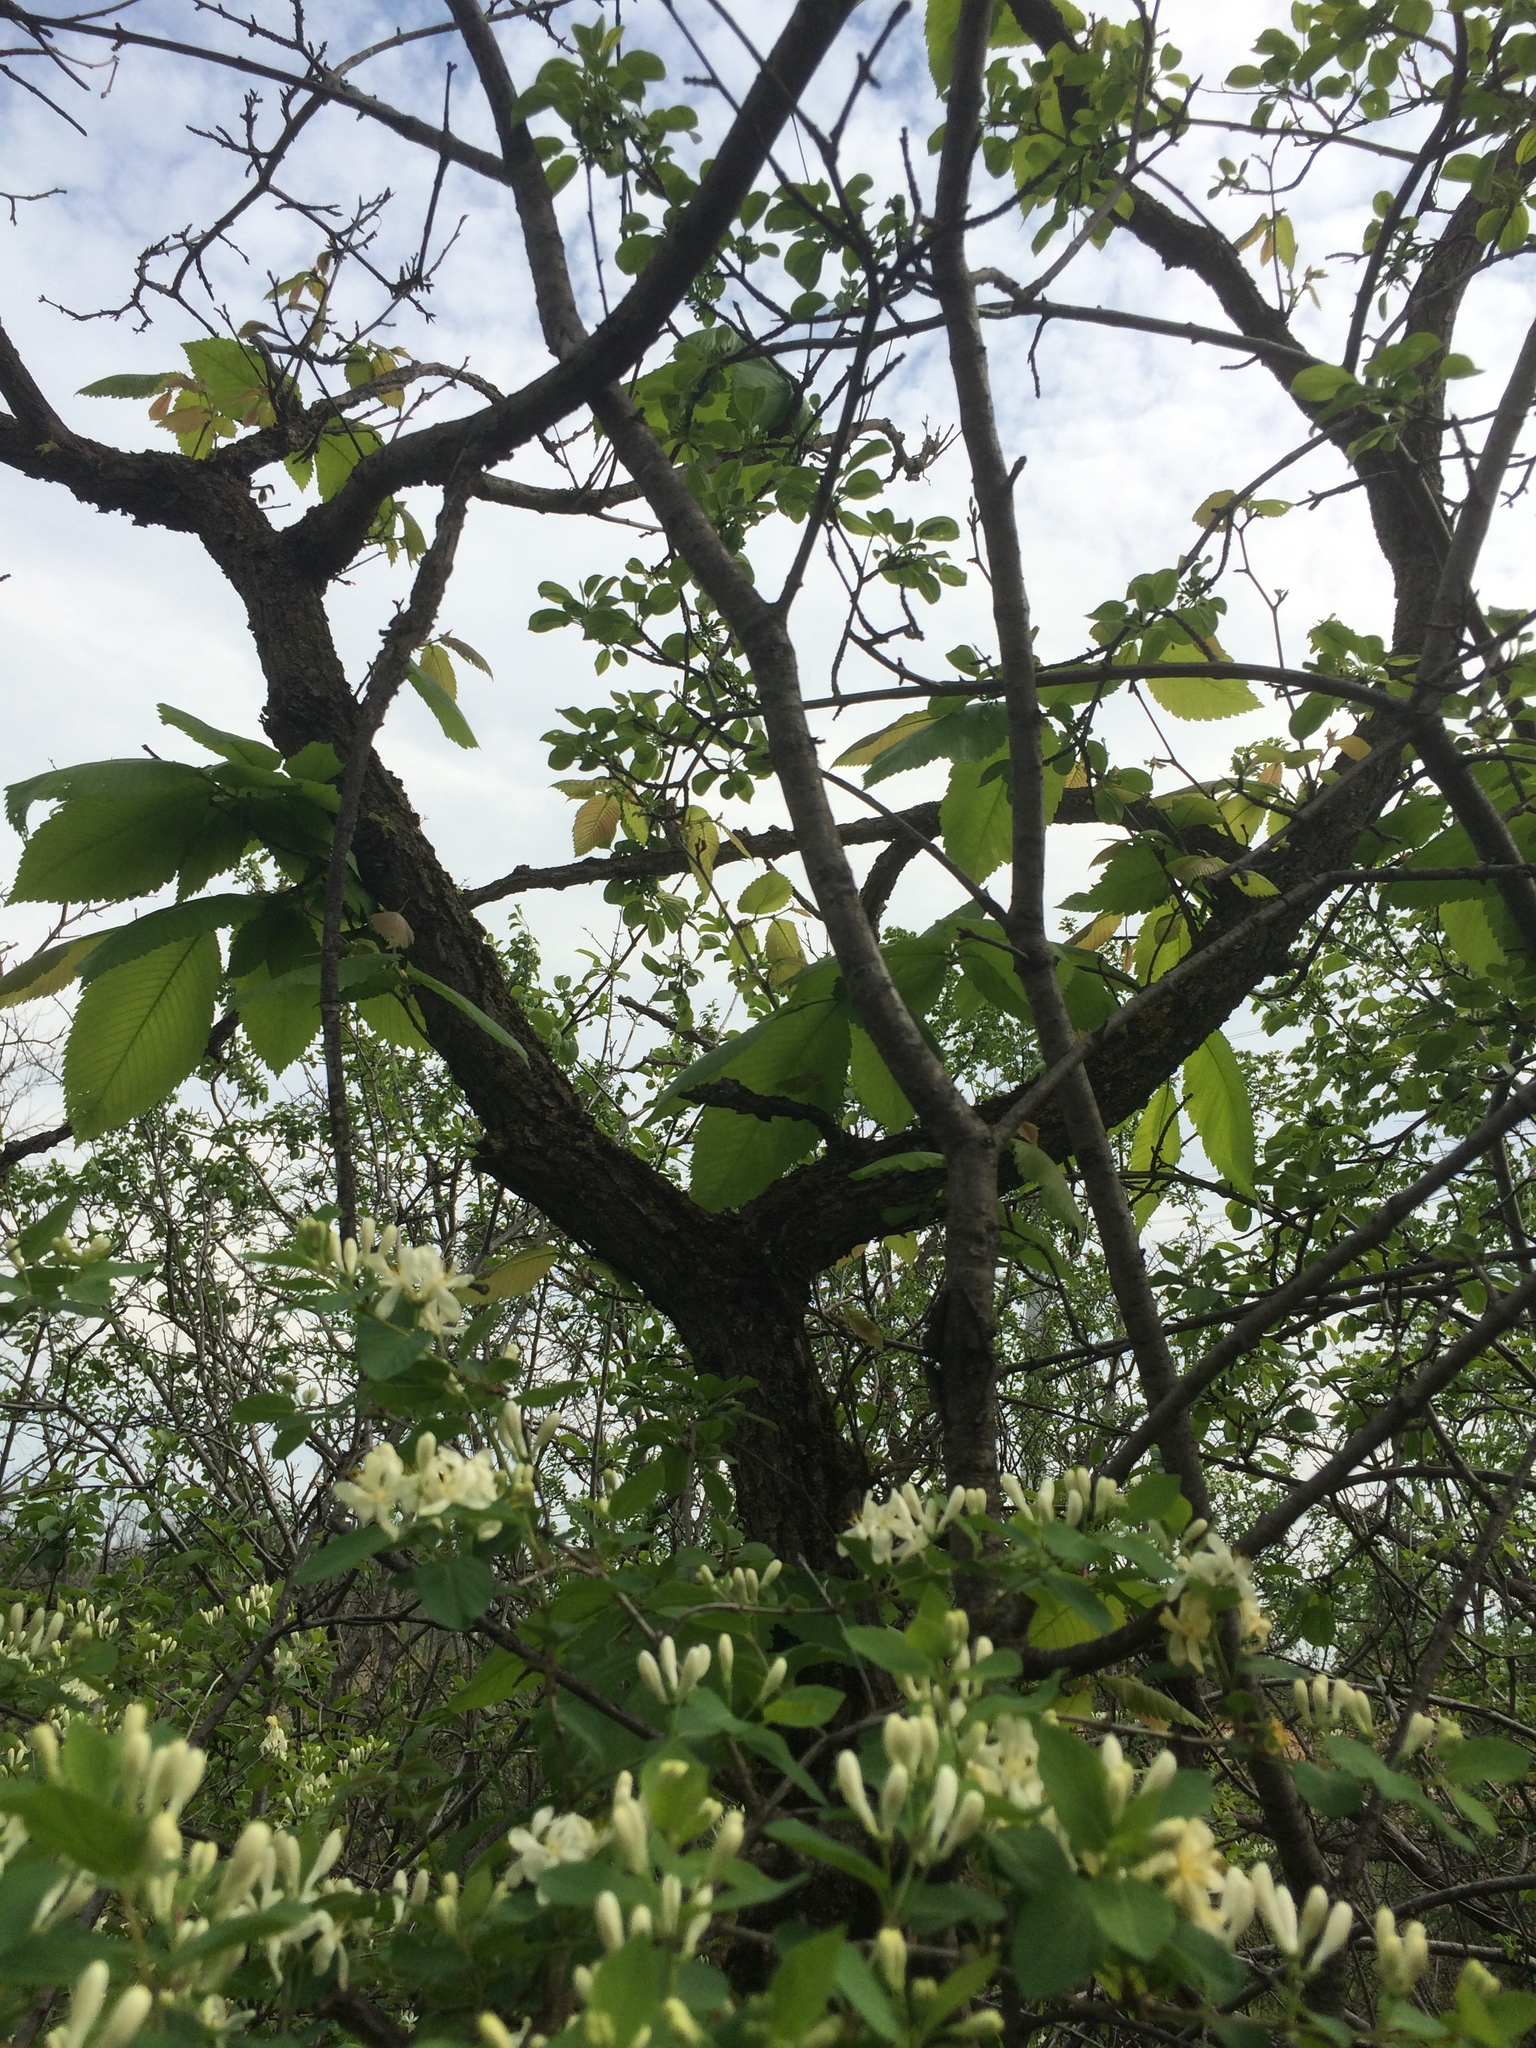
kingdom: Plantae
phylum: Tracheophyta
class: Magnoliopsida
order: Rosales
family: Ulmaceae
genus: Ulmus
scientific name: Ulmus thomasii
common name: Rock elm
